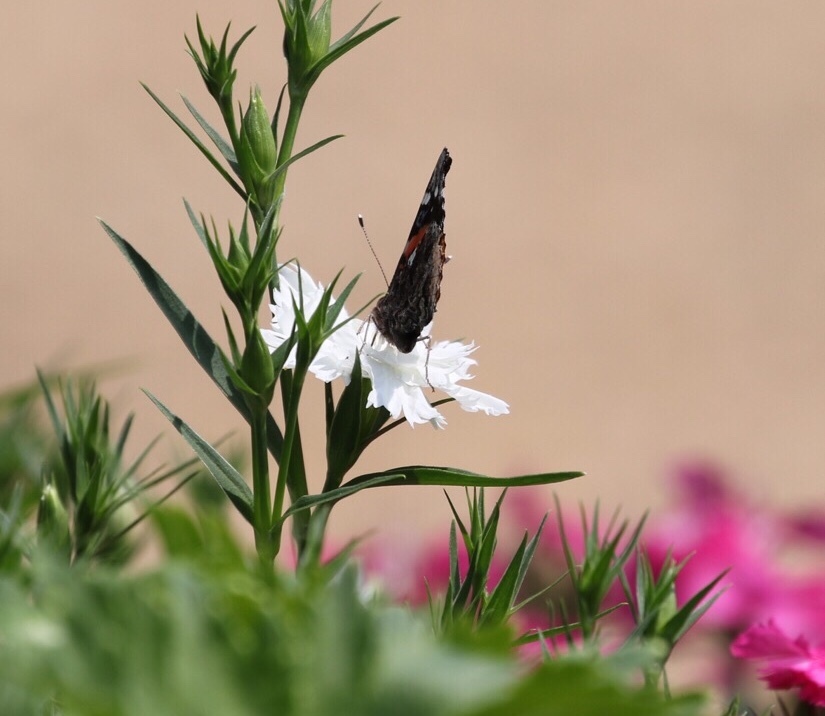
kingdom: Animalia
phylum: Arthropoda
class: Insecta
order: Lepidoptera
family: Nymphalidae
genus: Vanessa
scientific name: Vanessa atalanta
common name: Red admiral
